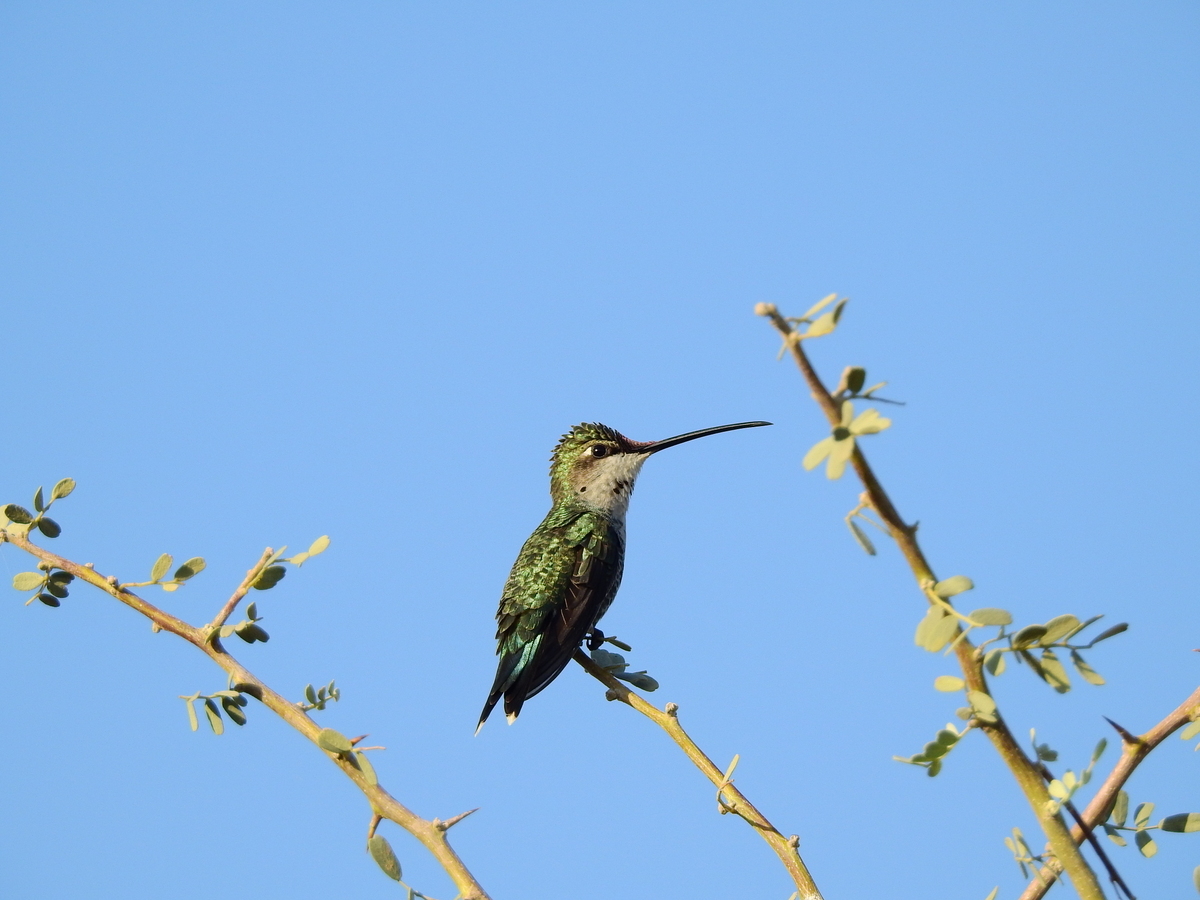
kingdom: Animalia
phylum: Chordata
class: Aves
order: Apodiformes
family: Trochilidae
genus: Heliomaster
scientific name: Heliomaster furcifer
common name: Blue-tufted starthroat
